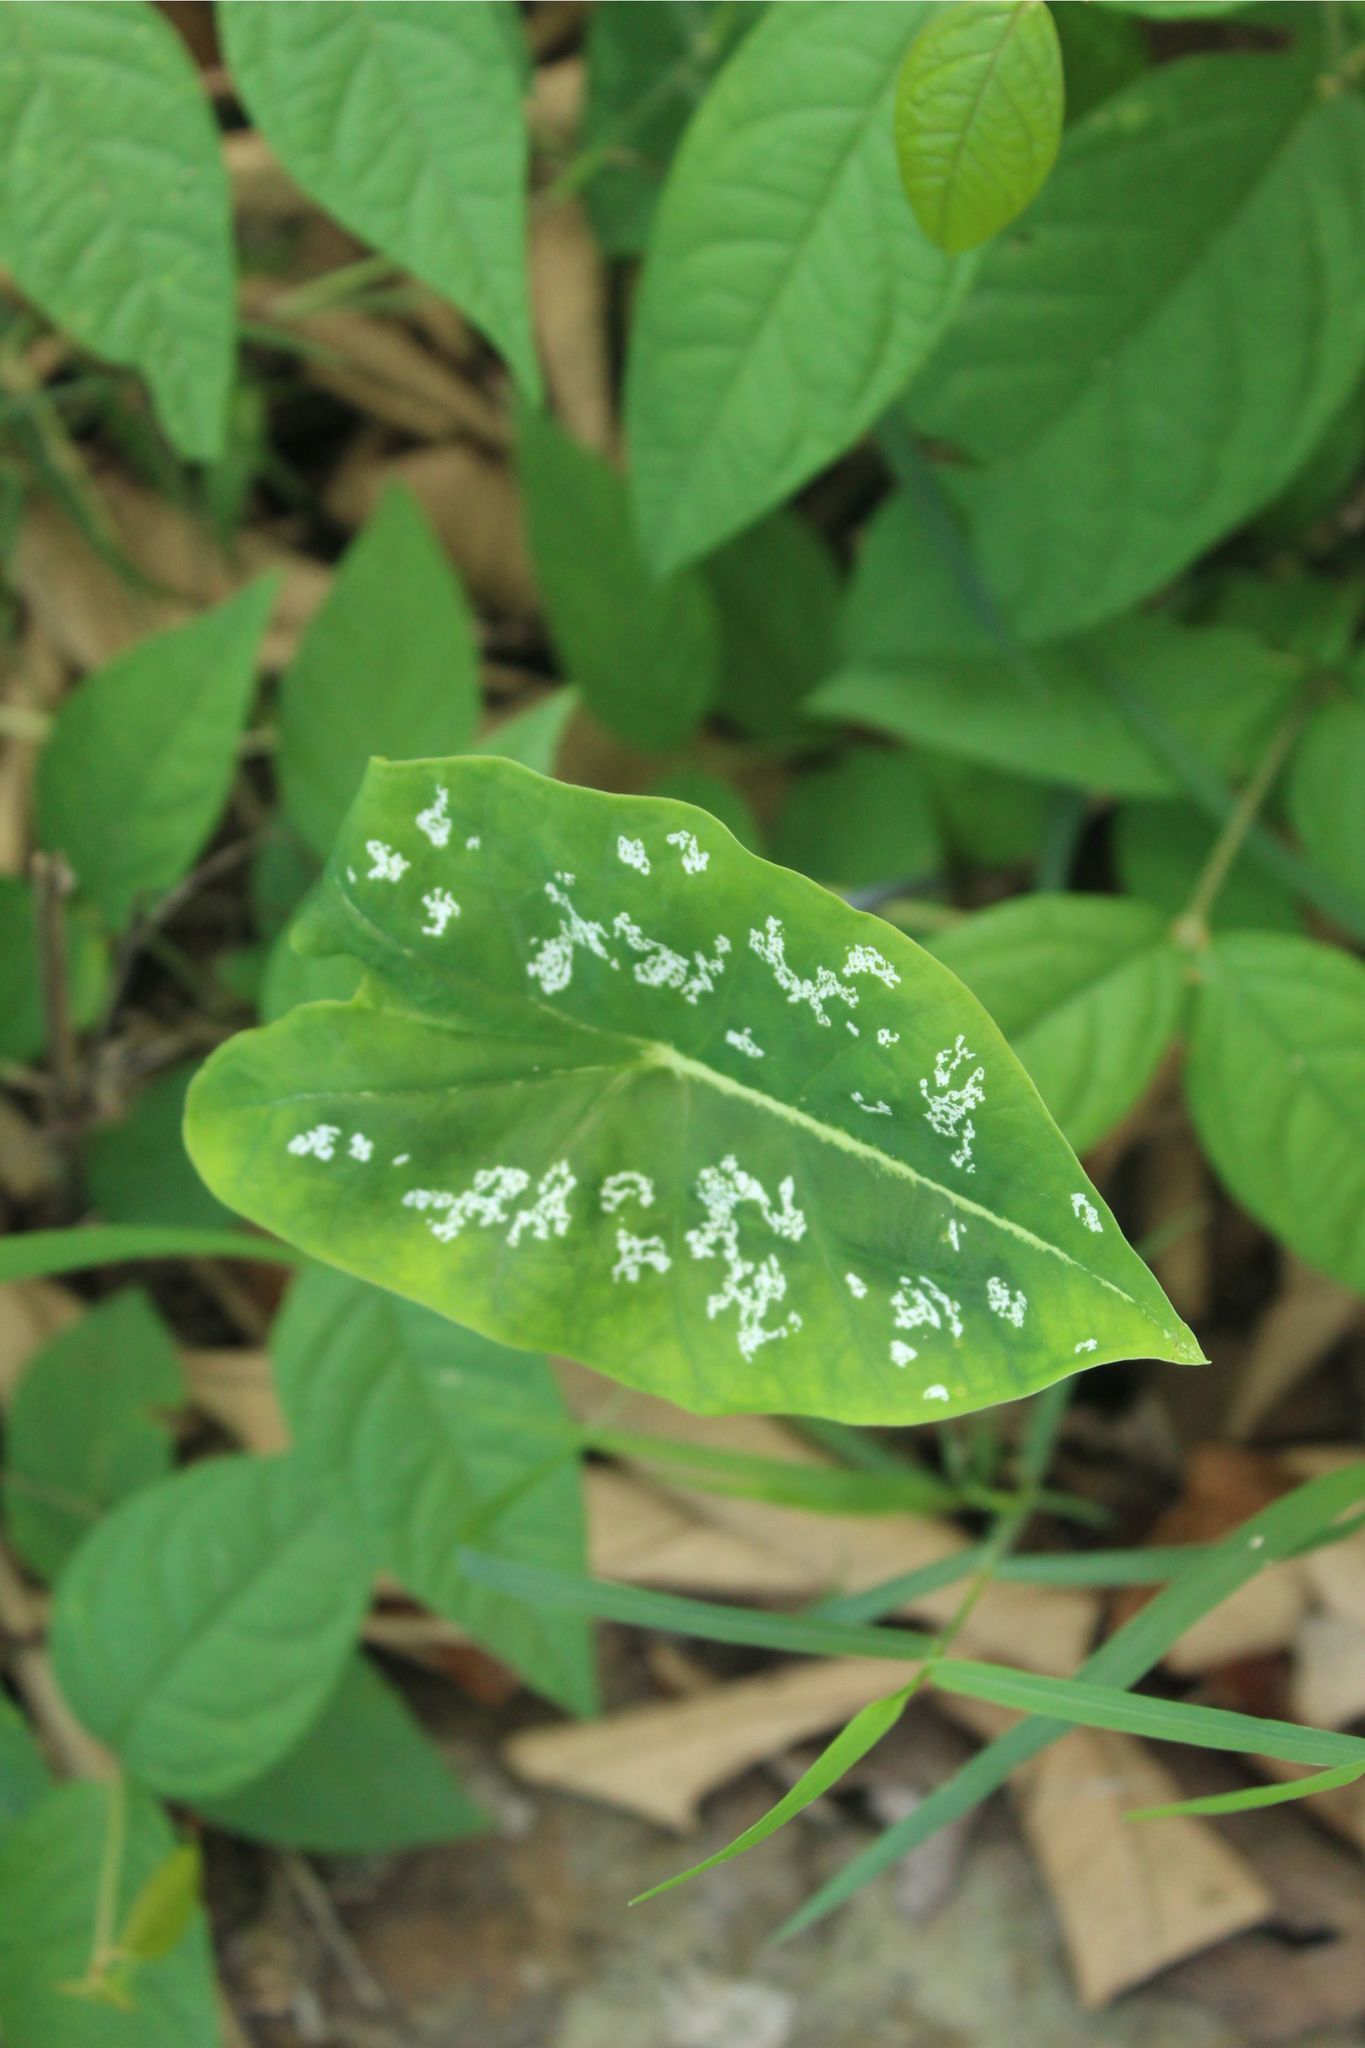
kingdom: Plantae
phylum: Tracheophyta
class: Liliopsida
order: Alismatales
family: Araceae
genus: Caladium
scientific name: Caladium
